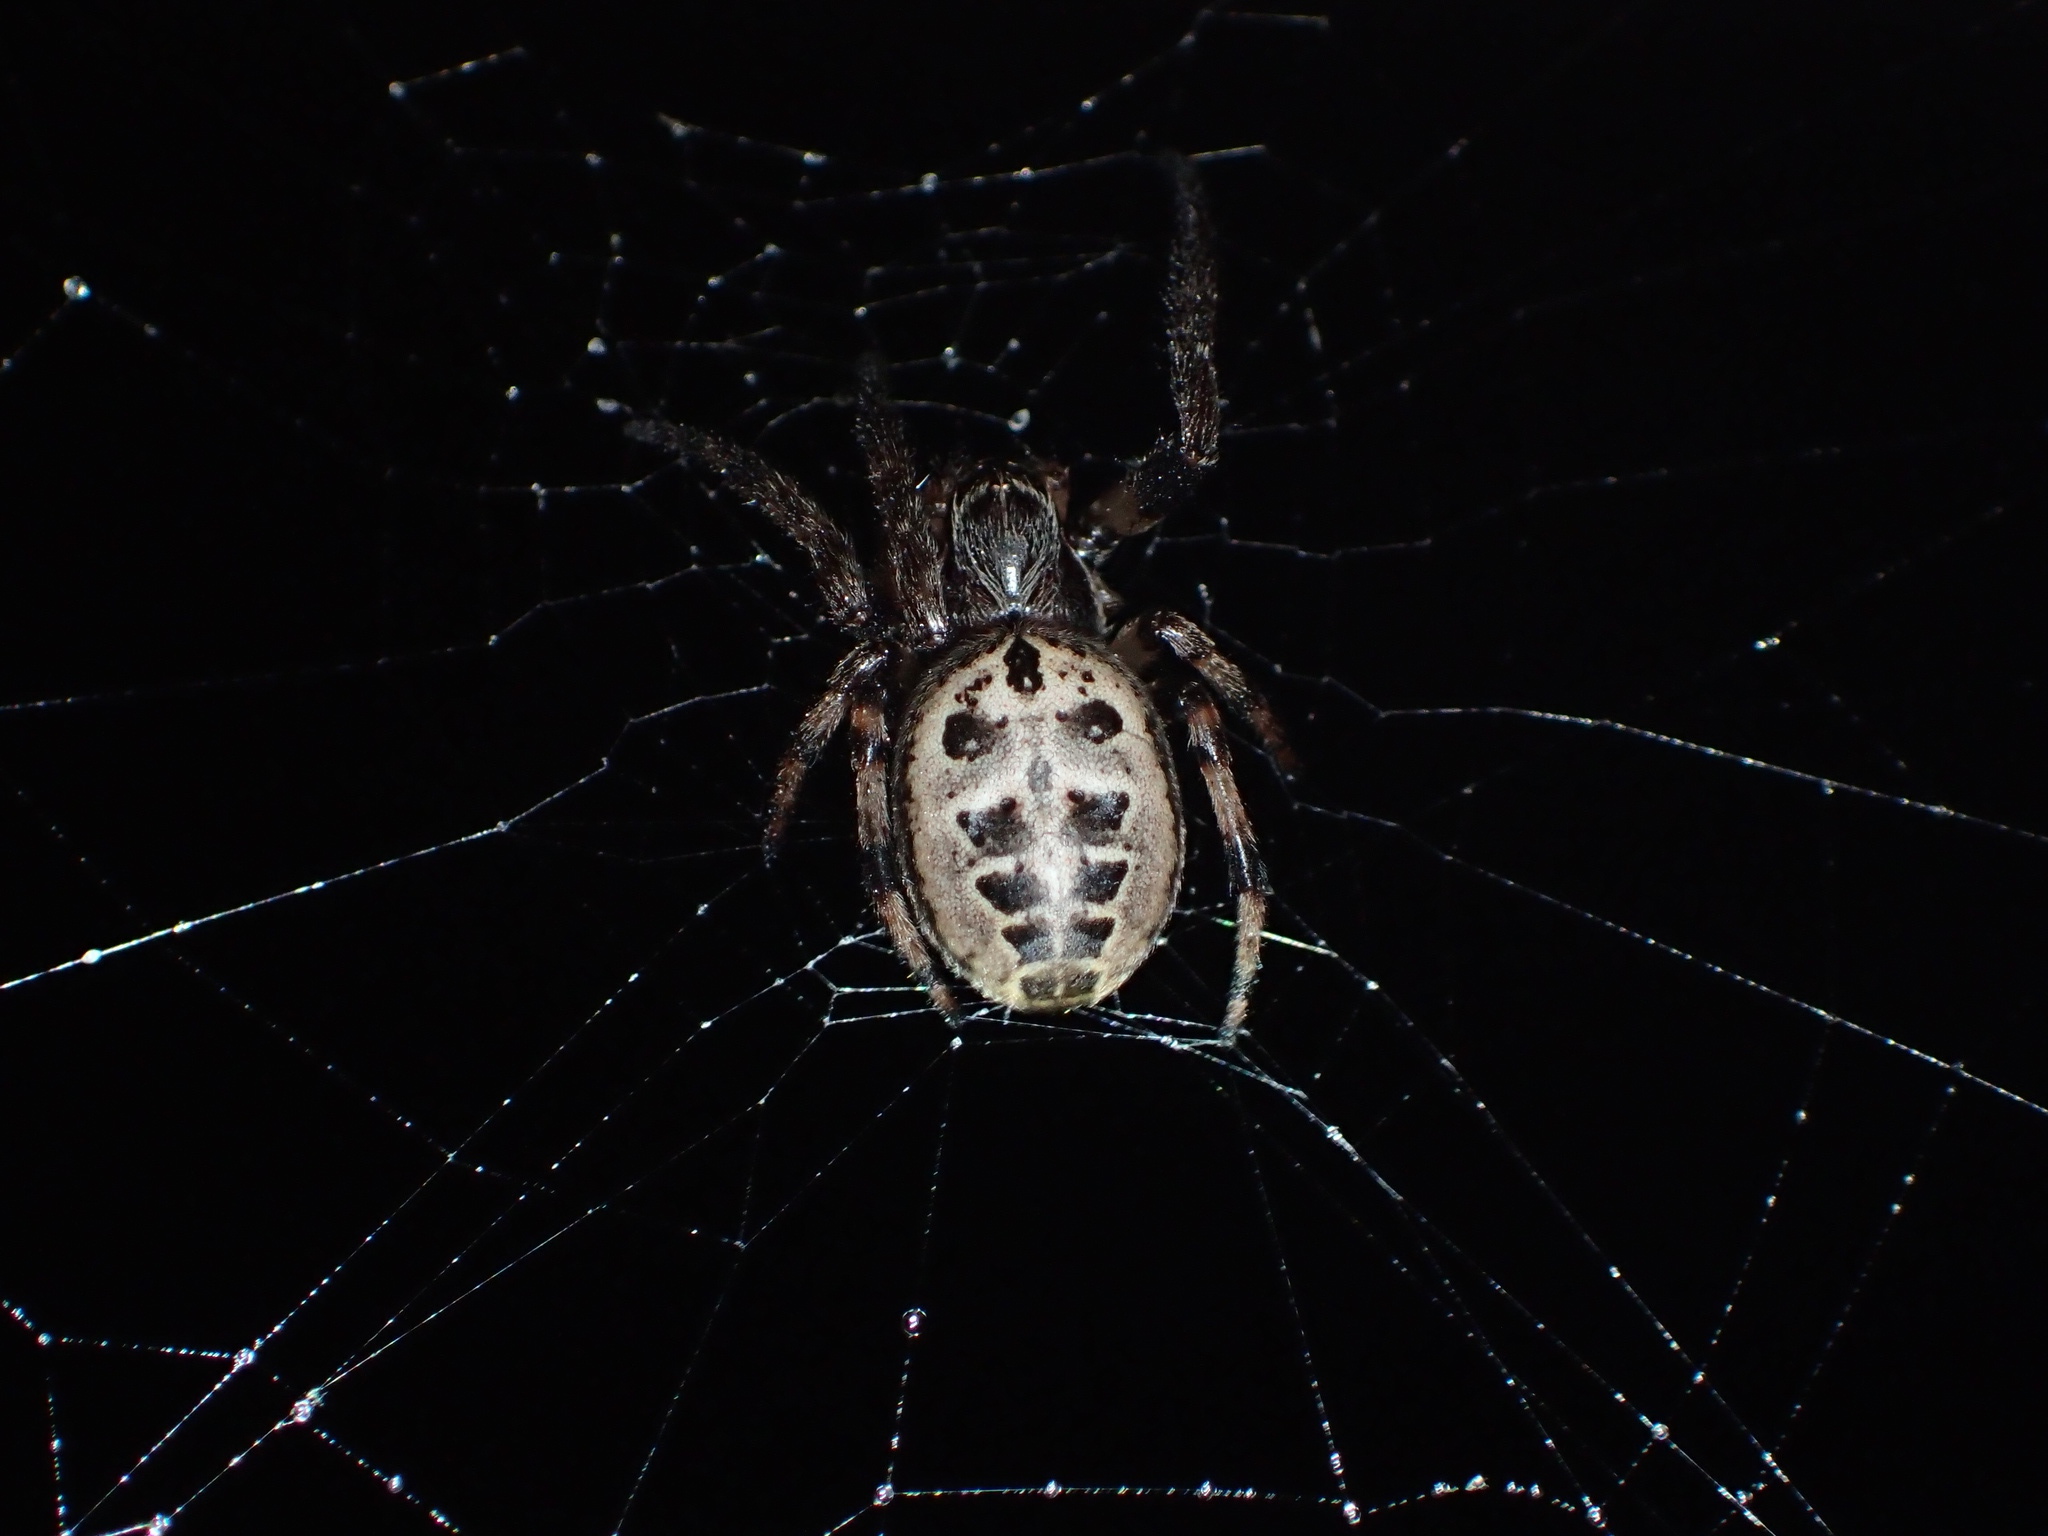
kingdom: Animalia
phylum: Arthropoda
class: Arachnida
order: Araneae
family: Araneidae
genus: Larinioides
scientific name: Larinioides cornutus
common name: Furrow orbweaver
